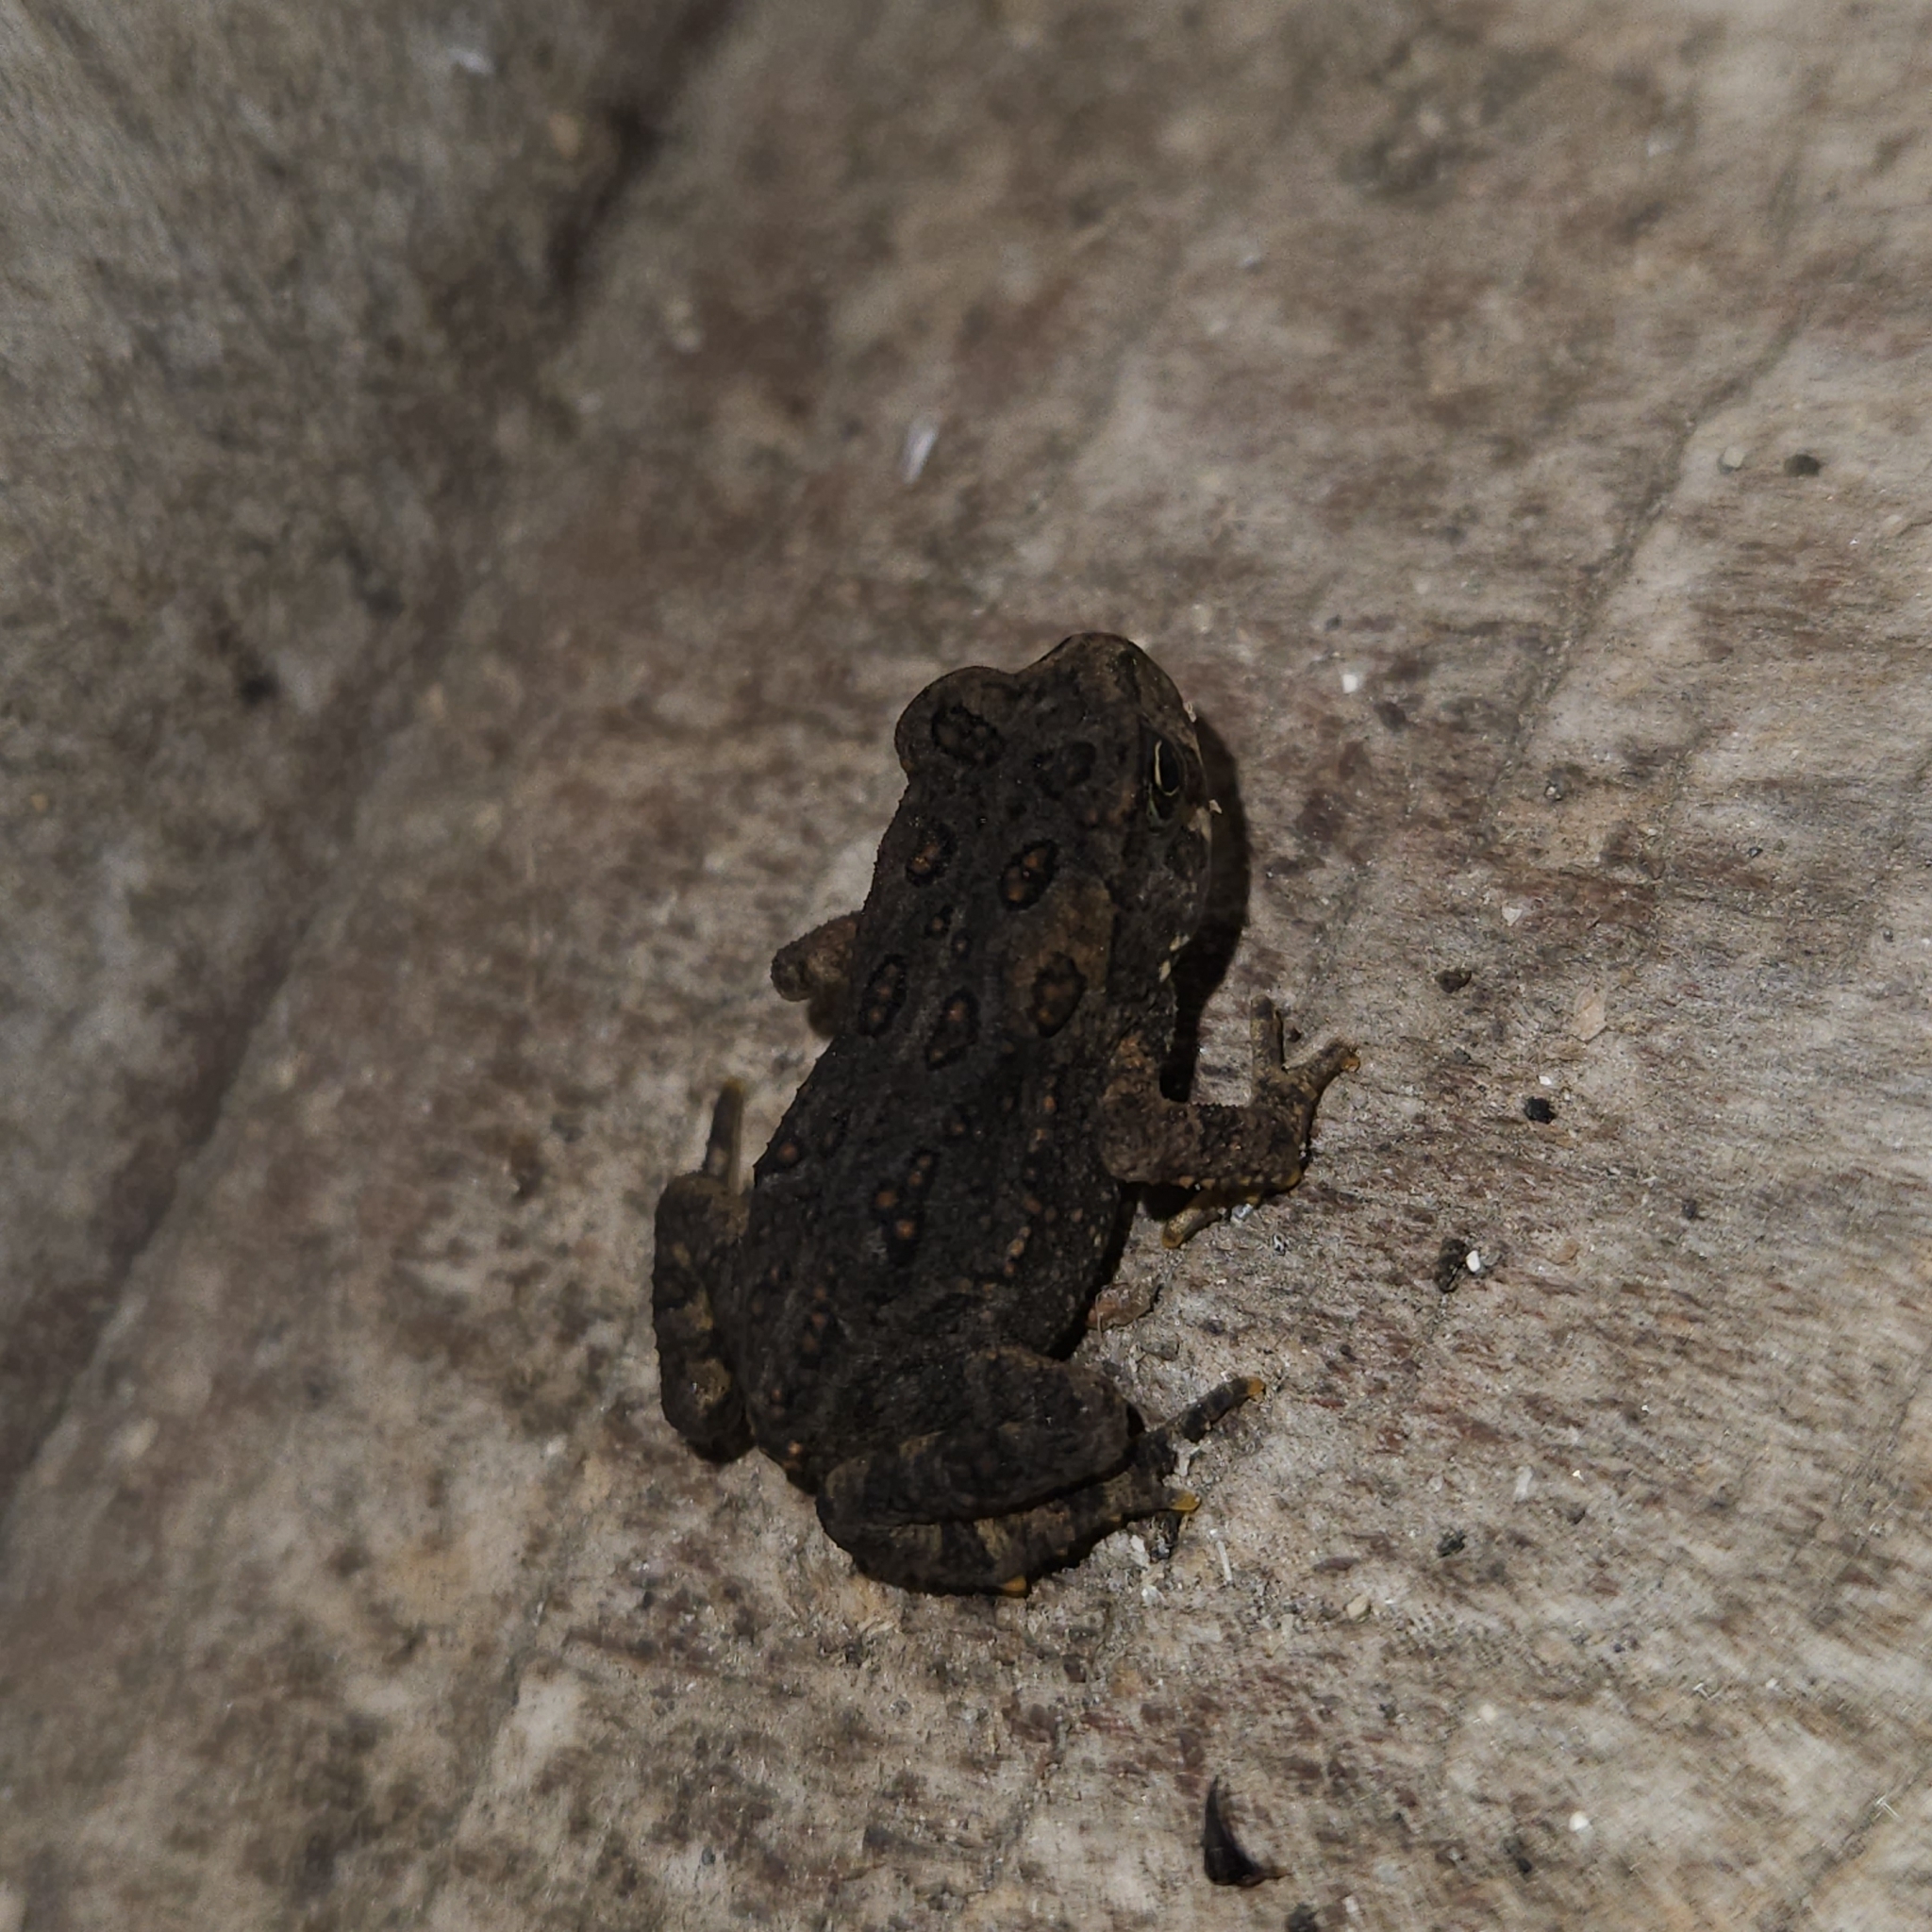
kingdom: Animalia
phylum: Chordata
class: Amphibia
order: Anura
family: Bufonidae
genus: Anaxyrus
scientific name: Anaxyrus americanus
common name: American toad
